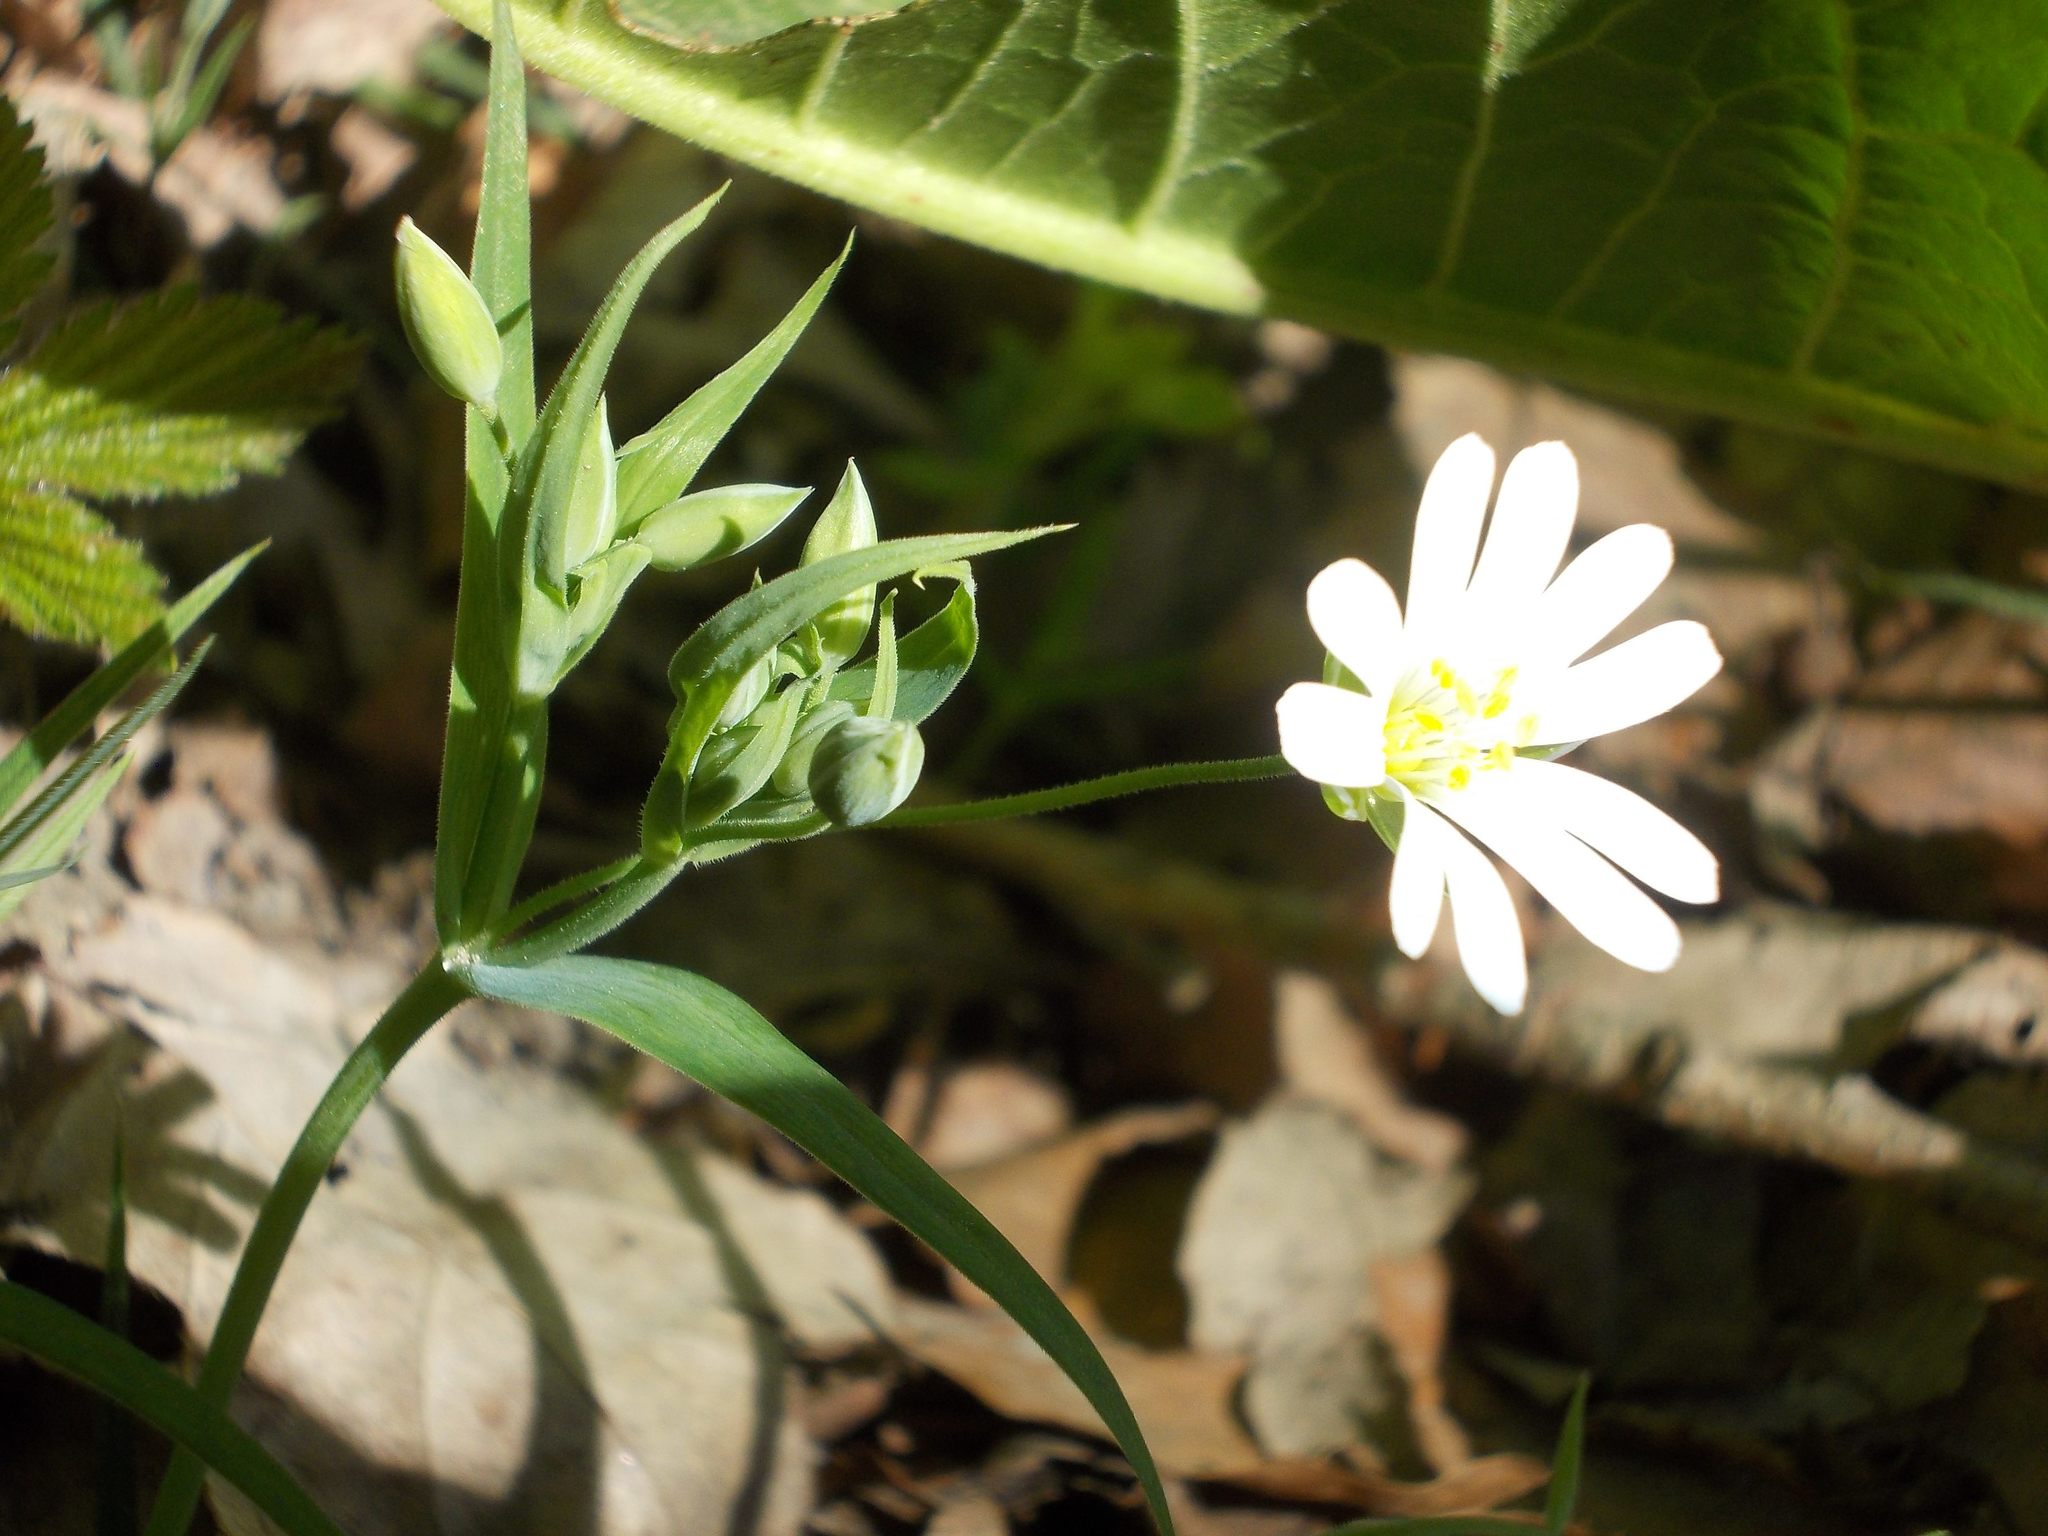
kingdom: Plantae
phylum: Tracheophyta
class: Magnoliopsida
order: Caryophyllales
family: Caryophyllaceae
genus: Rabelera
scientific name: Rabelera holostea
